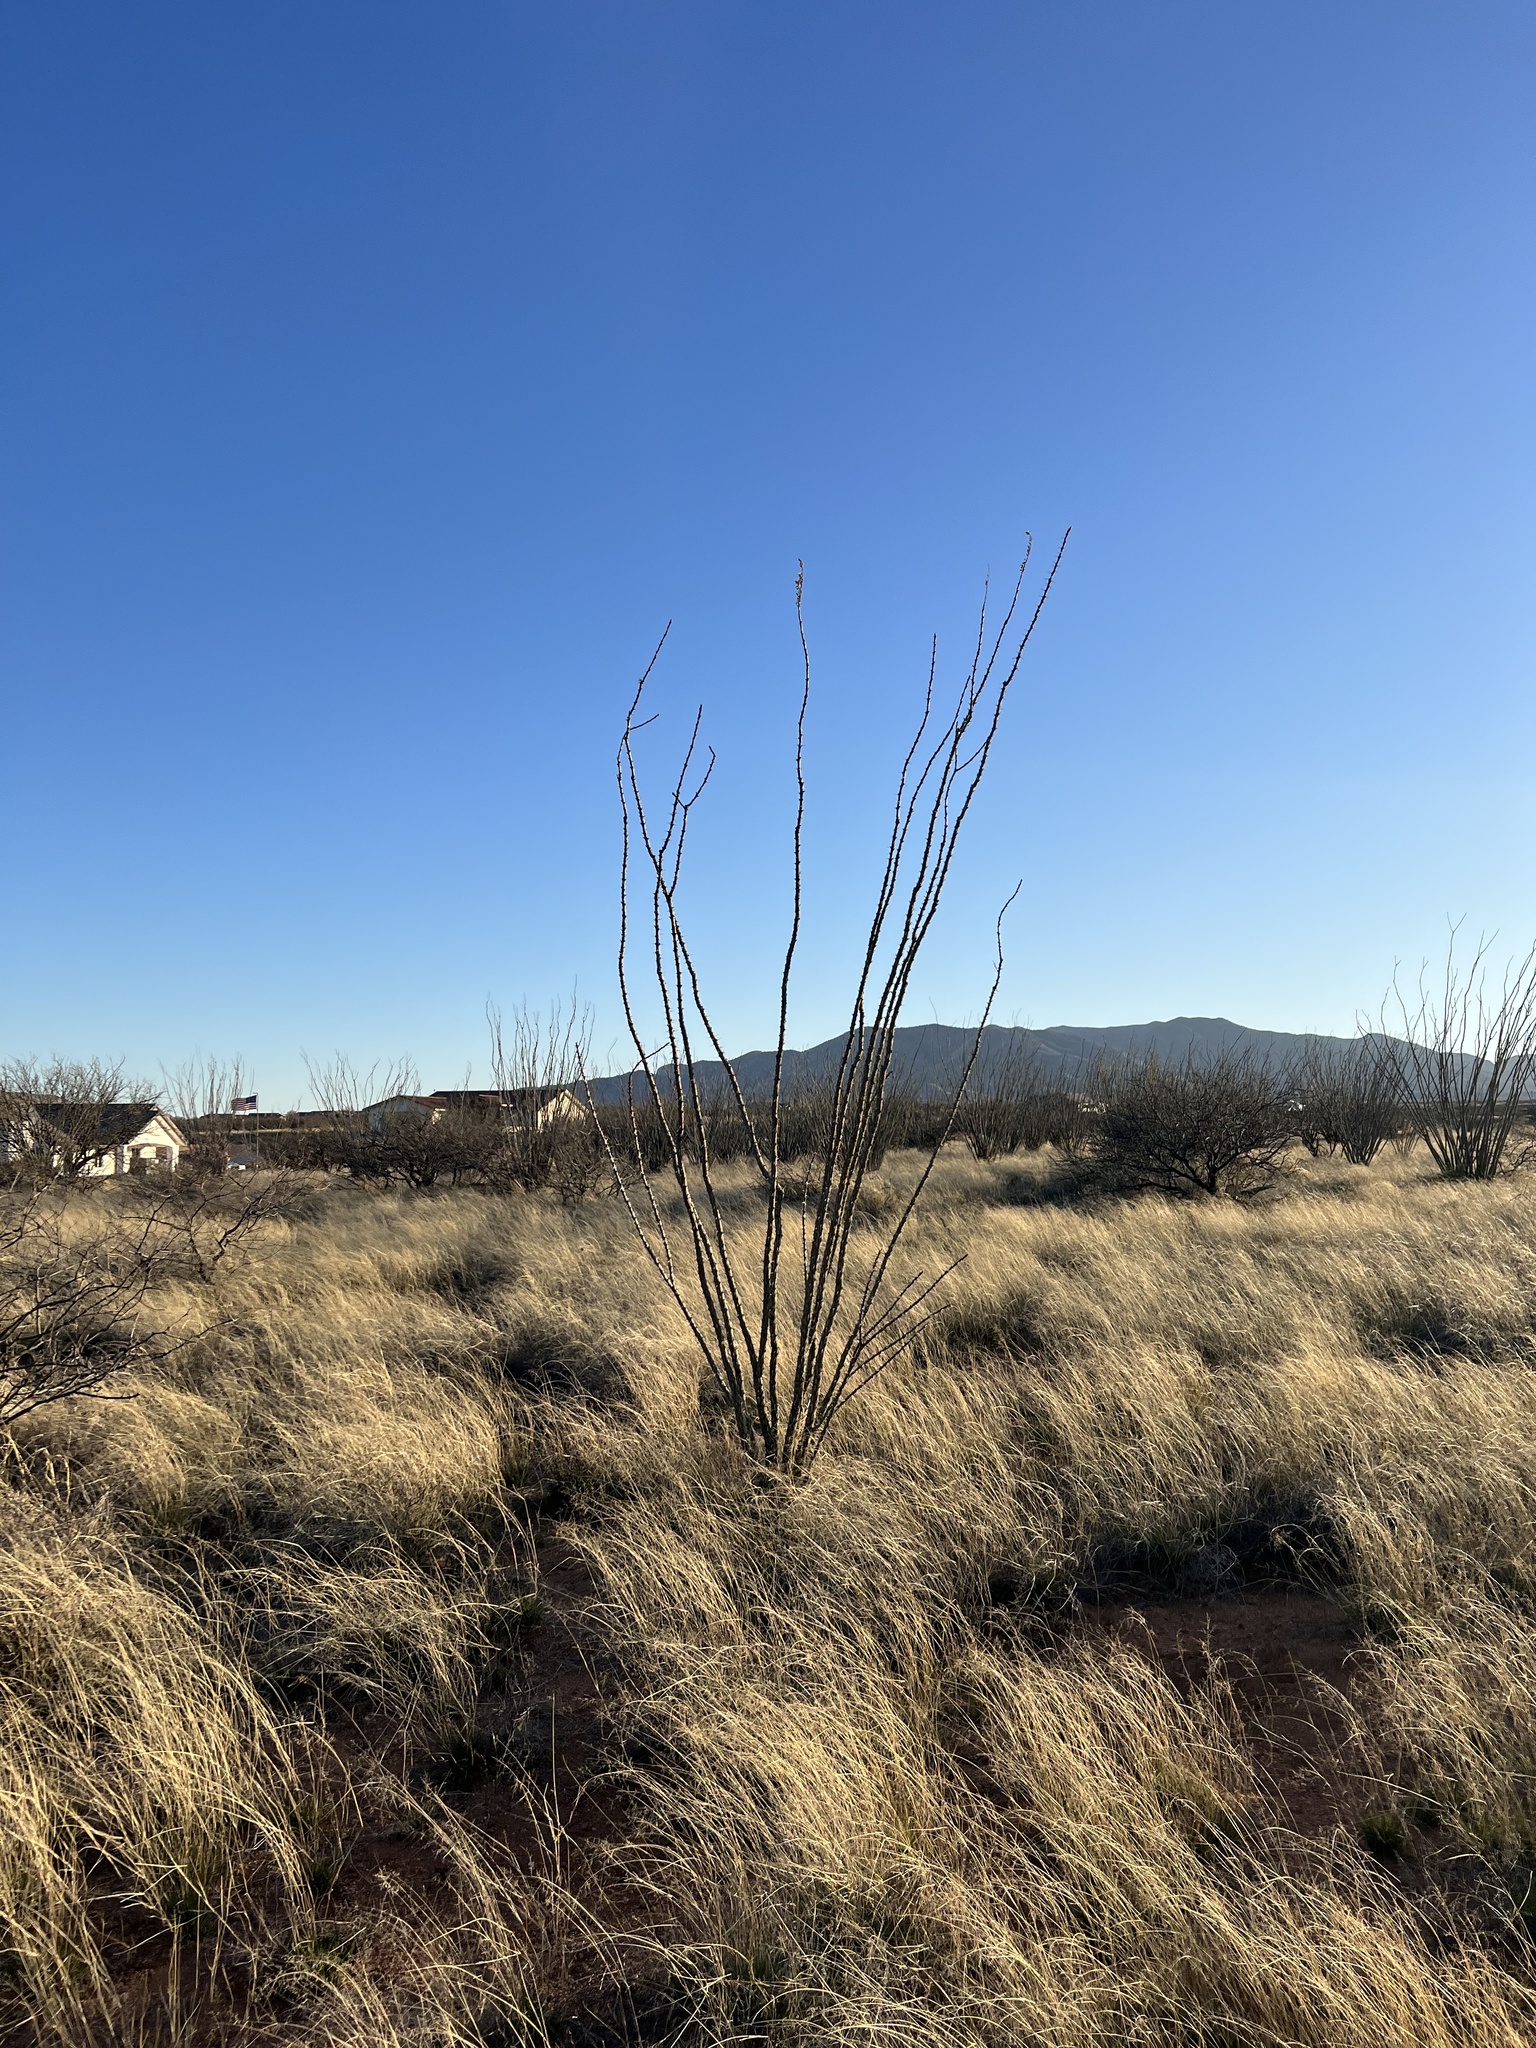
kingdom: Plantae
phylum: Tracheophyta
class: Magnoliopsida
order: Ericales
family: Fouquieriaceae
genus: Fouquieria
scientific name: Fouquieria splendens
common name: Vine-cactus
